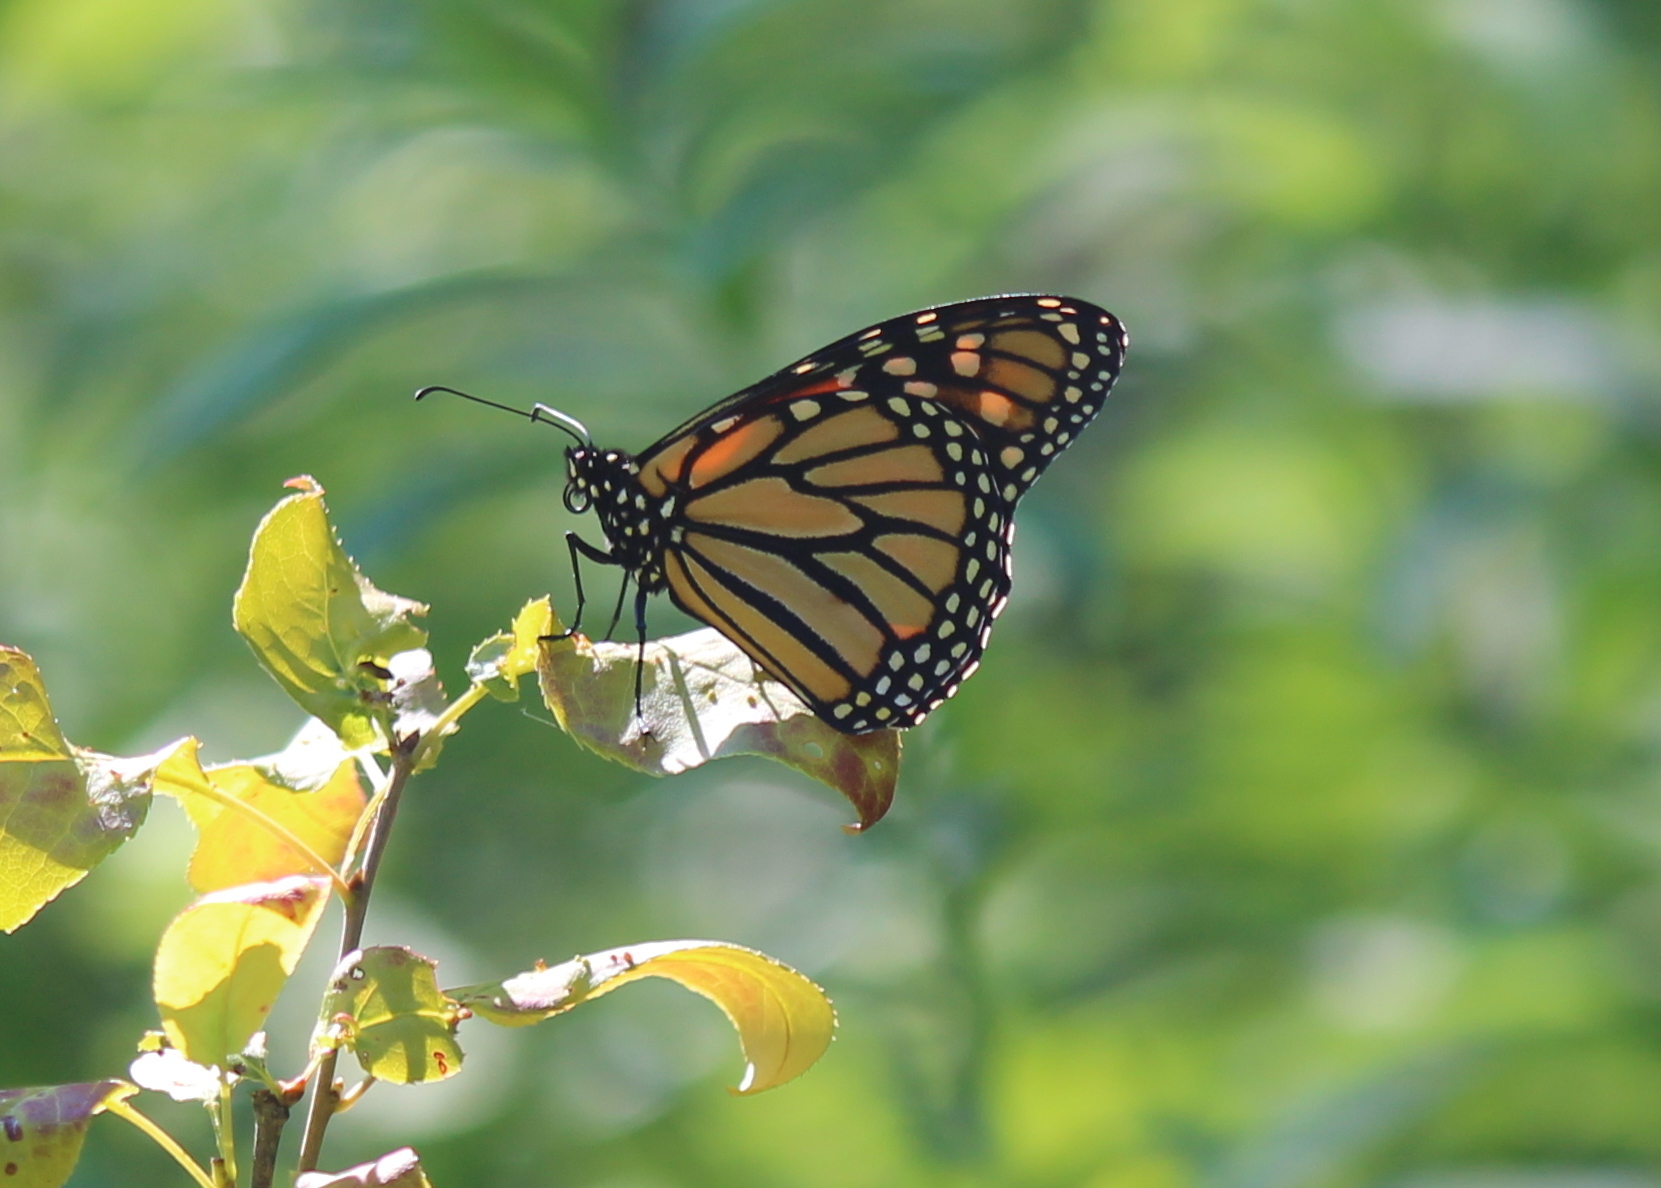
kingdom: Animalia
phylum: Arthropoda
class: Insecta
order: Lepidoptera
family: Nymphalidae
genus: Danaus
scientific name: Danaus plexippus
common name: Monarch
